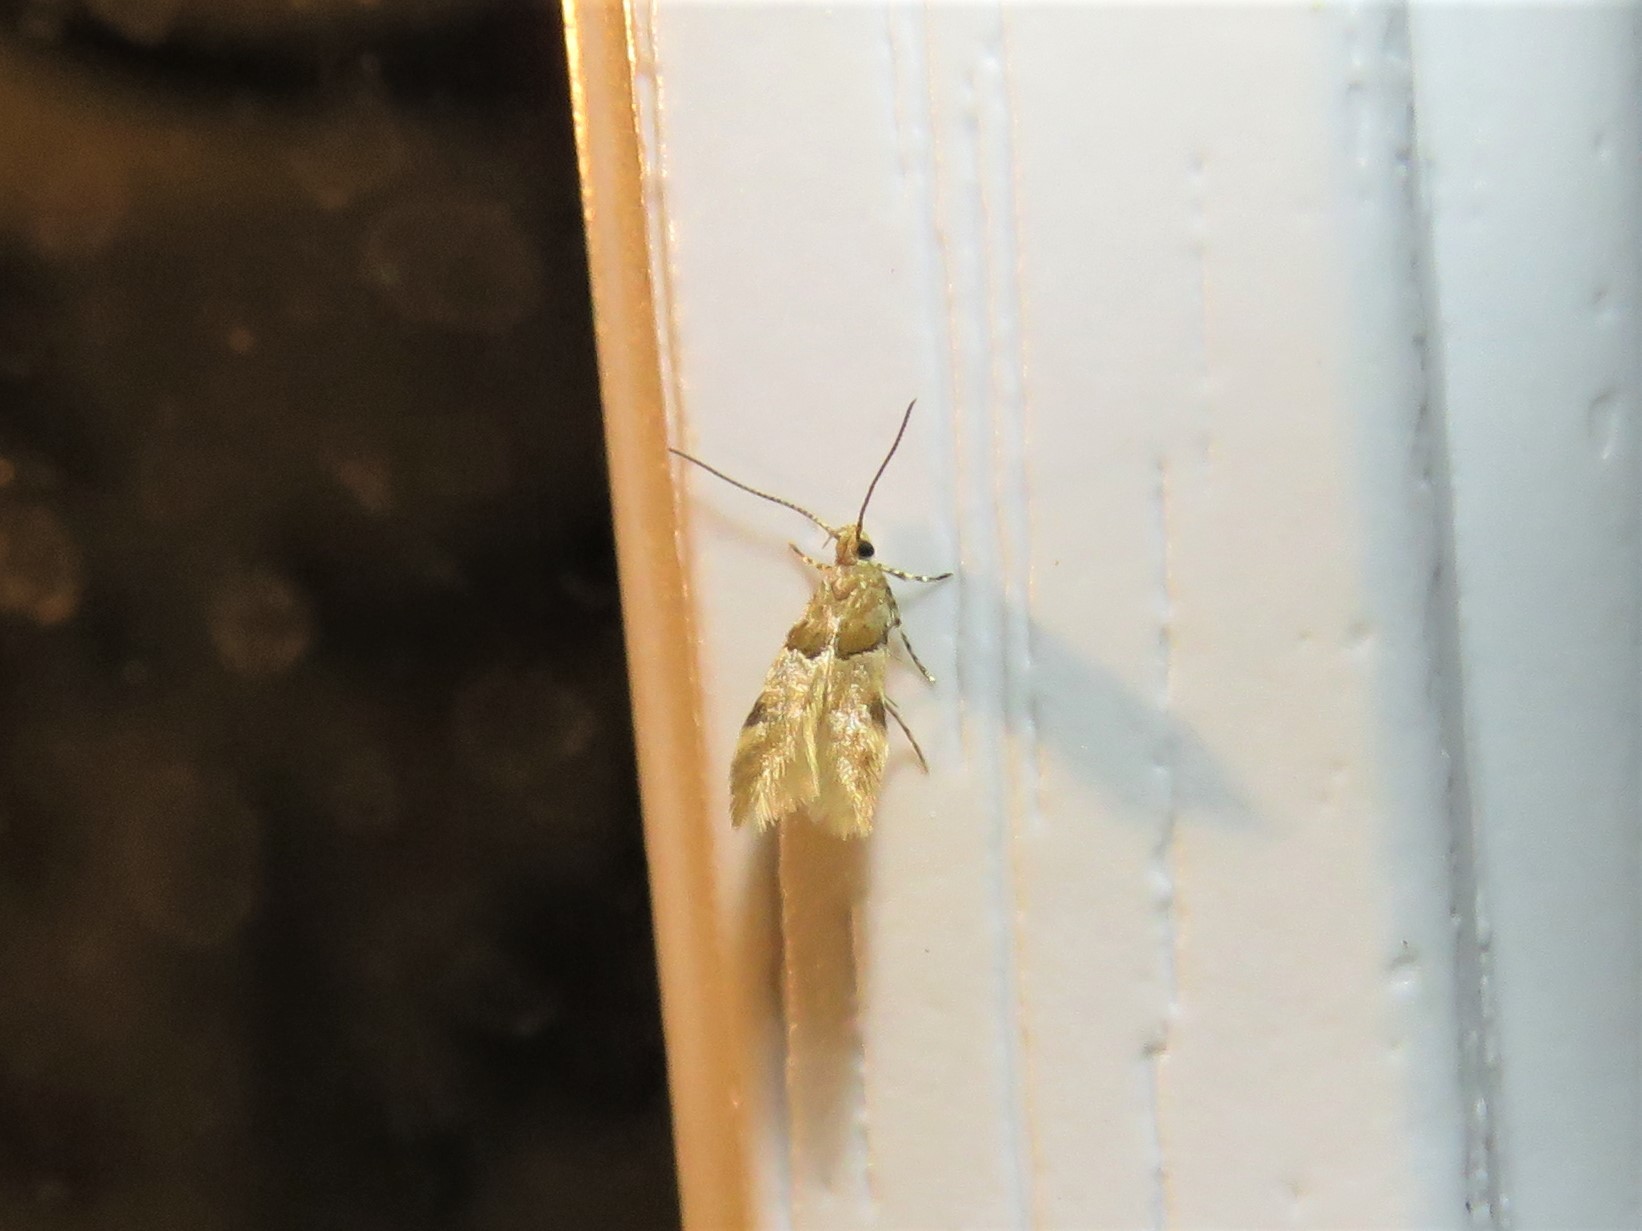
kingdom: Animalia
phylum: Arthropoda
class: Insecta
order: Lepidoptera
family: Gelechiidae
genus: Theisoa
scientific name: Theisoa constrictella
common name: Constricted twirler
